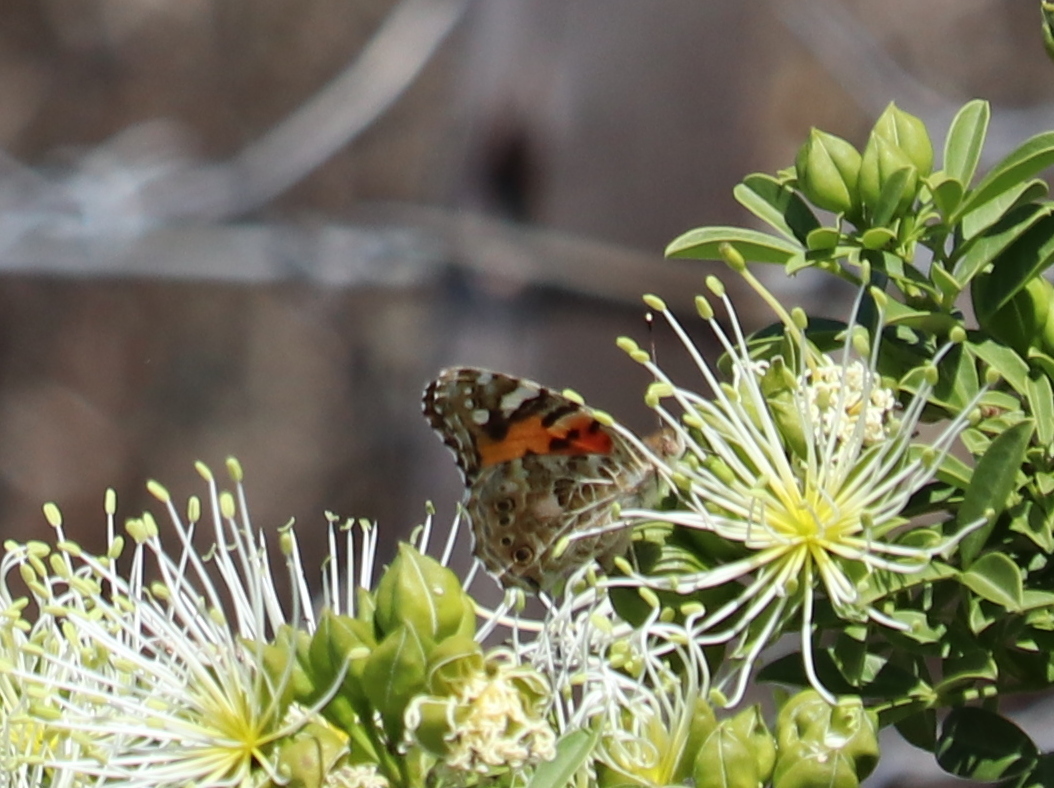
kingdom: Animalia
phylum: Arthropoda
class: Insecta
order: Lepidoptera
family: Nymphalidae
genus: Vanessa
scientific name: Vanessa cardui
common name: Painted lady
